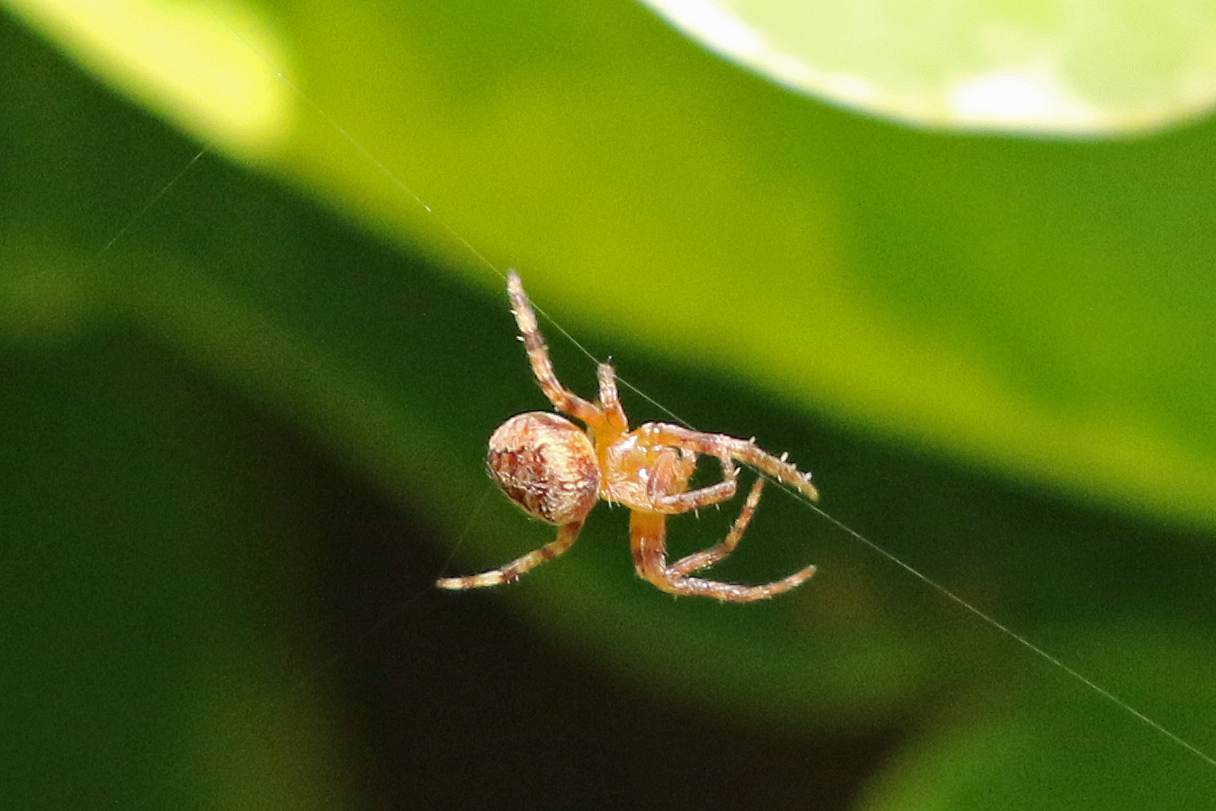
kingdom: Animalia
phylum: Arthropoda
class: Arachnida
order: Araneae
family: Araneidae
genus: Araneus
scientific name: Araneus diadematus
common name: Cross orbweaver
